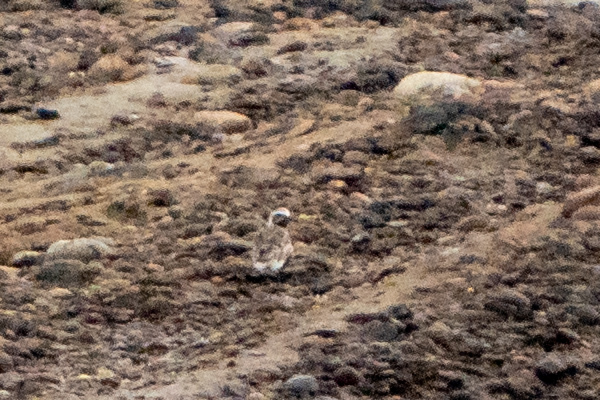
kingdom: Animalia
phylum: Chordata
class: Aves
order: Charadriiformes
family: Charadriidae
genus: Pluvialis
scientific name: Pluvialis squatarola
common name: Grey plover
